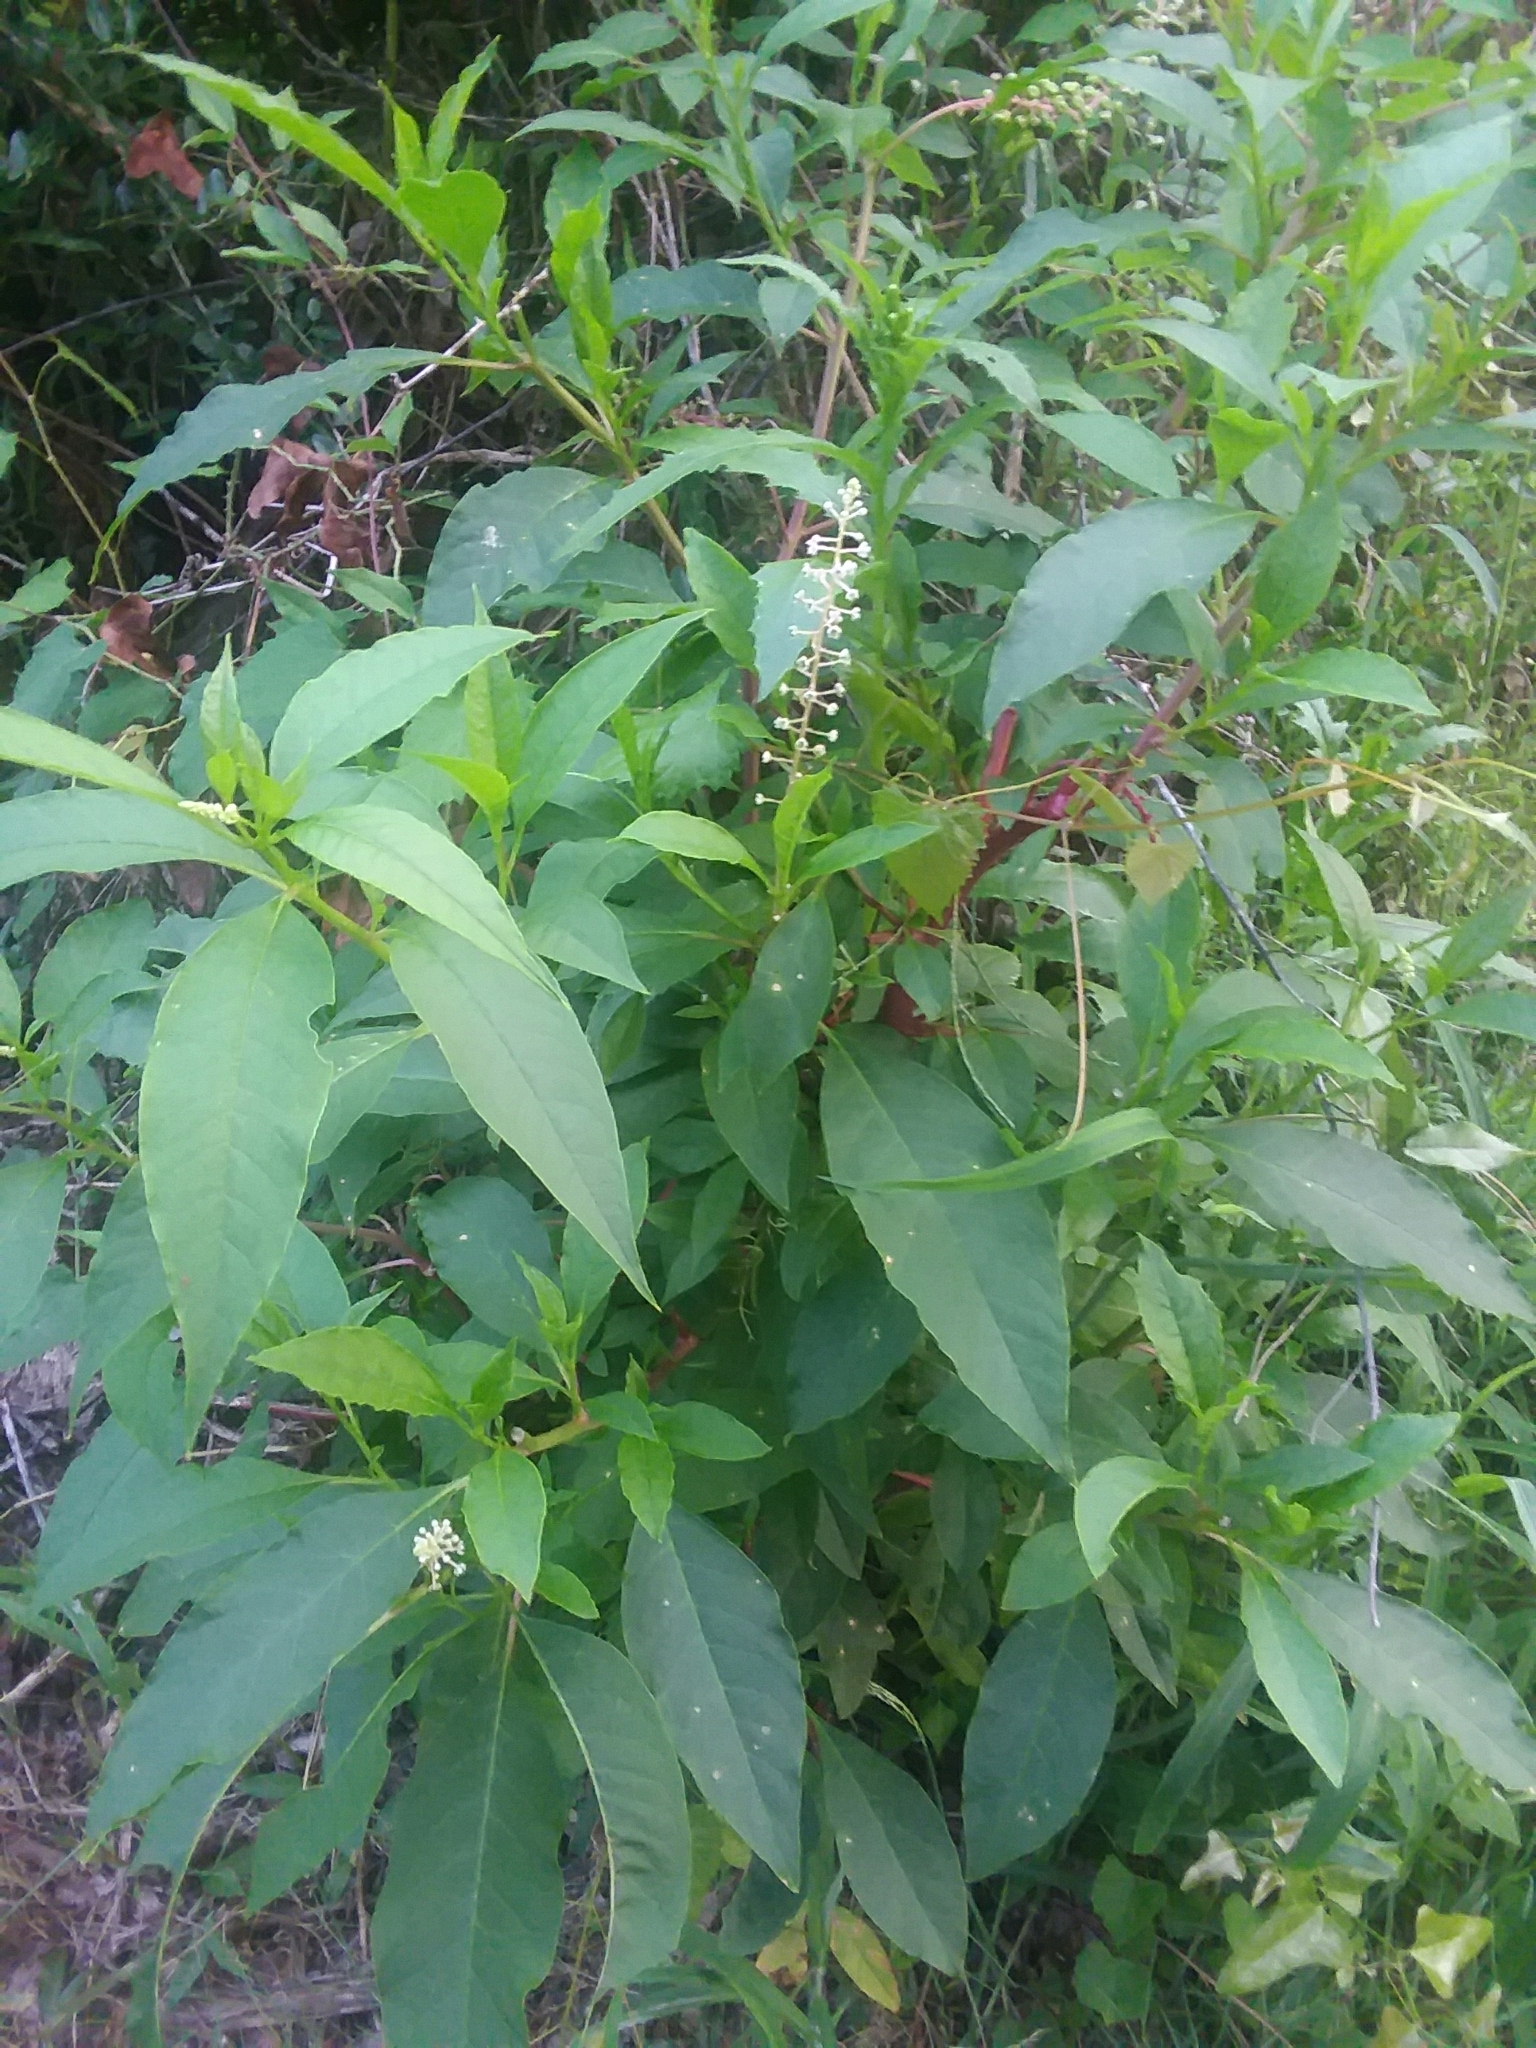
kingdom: Plantae
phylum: Tracheophyta
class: Magnoliopsida
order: Caryophyllales
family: Phytolaccaceae
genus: Phytolacca
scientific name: Phytolacca americana
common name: American pokeweed
